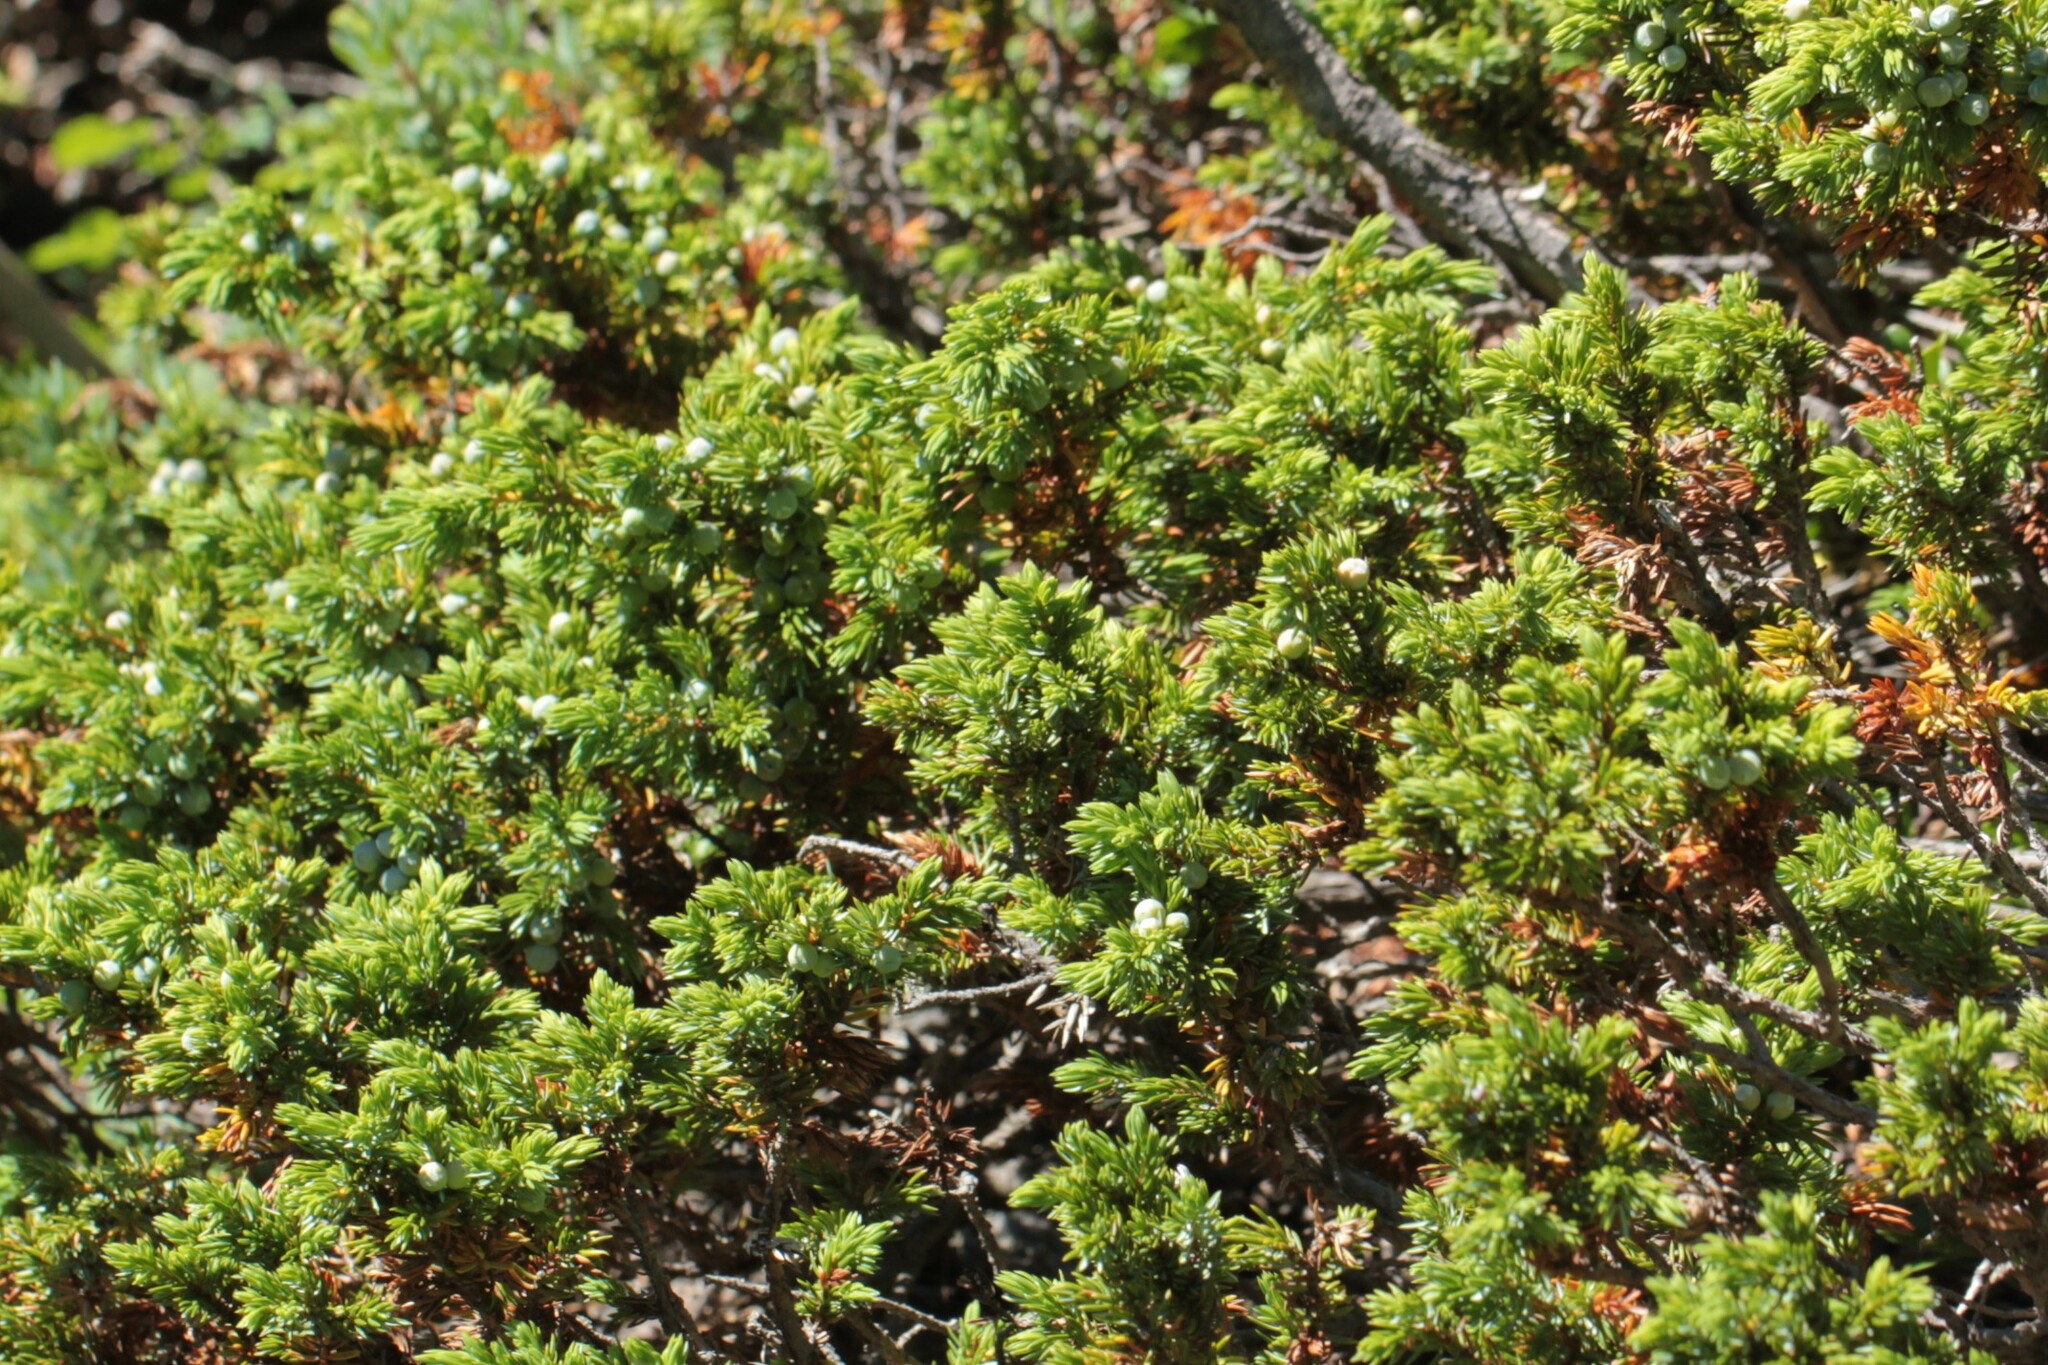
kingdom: Plantae
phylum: Tracheophyta
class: Pinopsida
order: Pinales
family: Cupressaceae
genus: Juniperus
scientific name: Juniperus communis
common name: Common juniper
